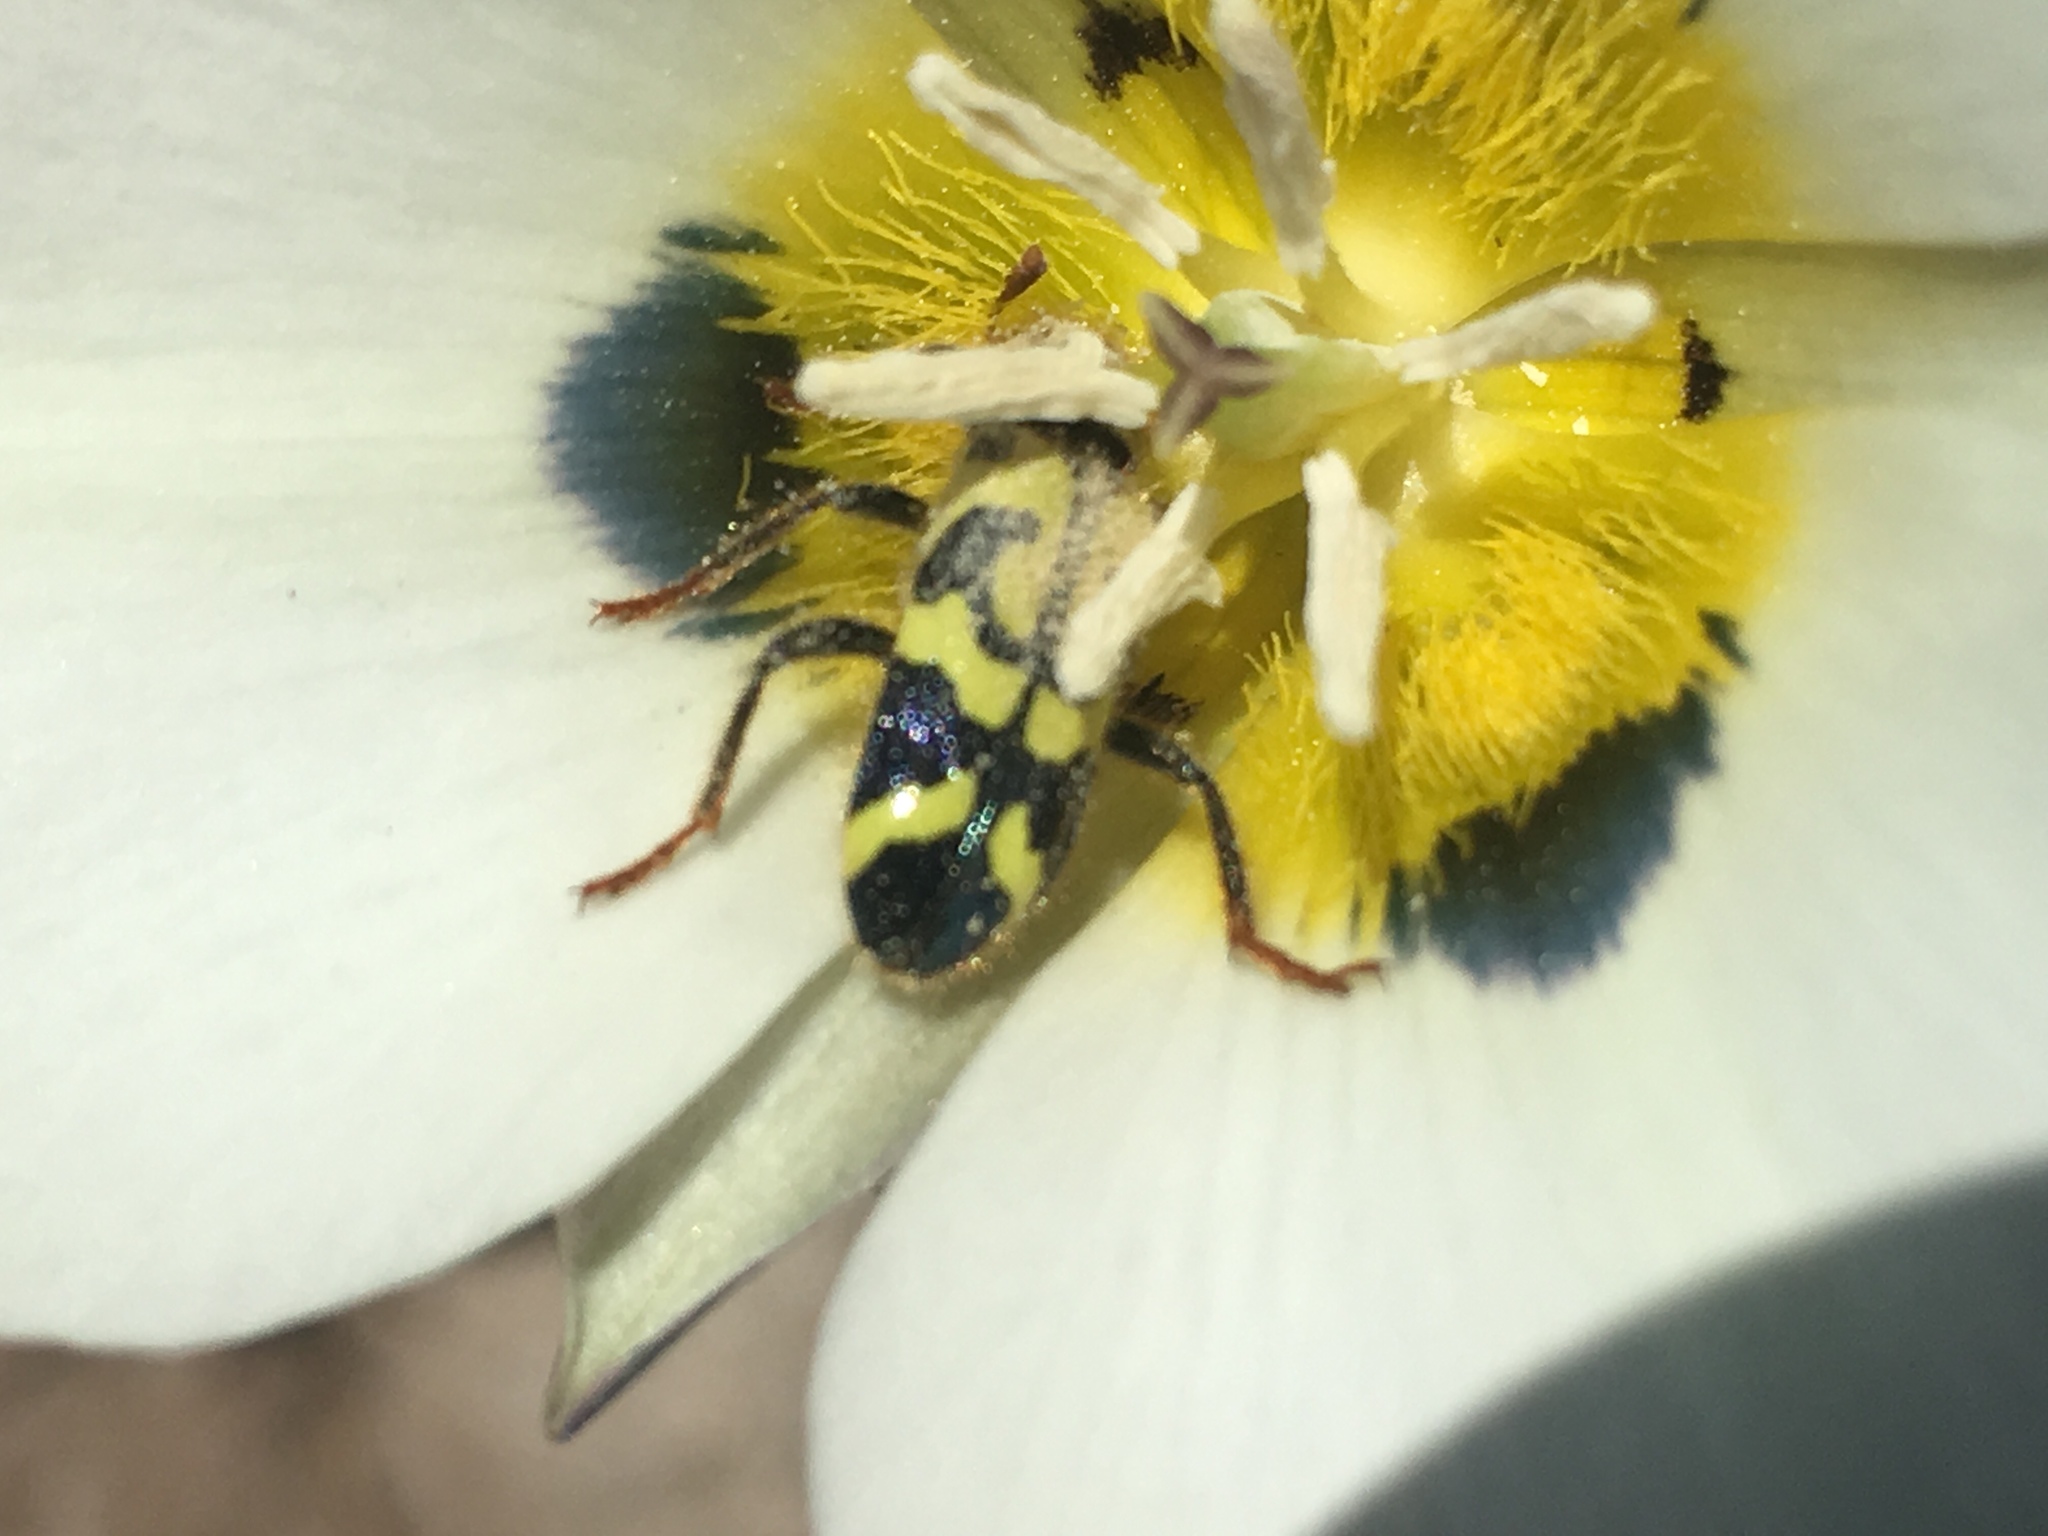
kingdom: Animalia
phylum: Arthropoda
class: Insecta
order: Coleoptera
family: Cleridae
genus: Trichodes
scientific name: Trichodes ornatus
